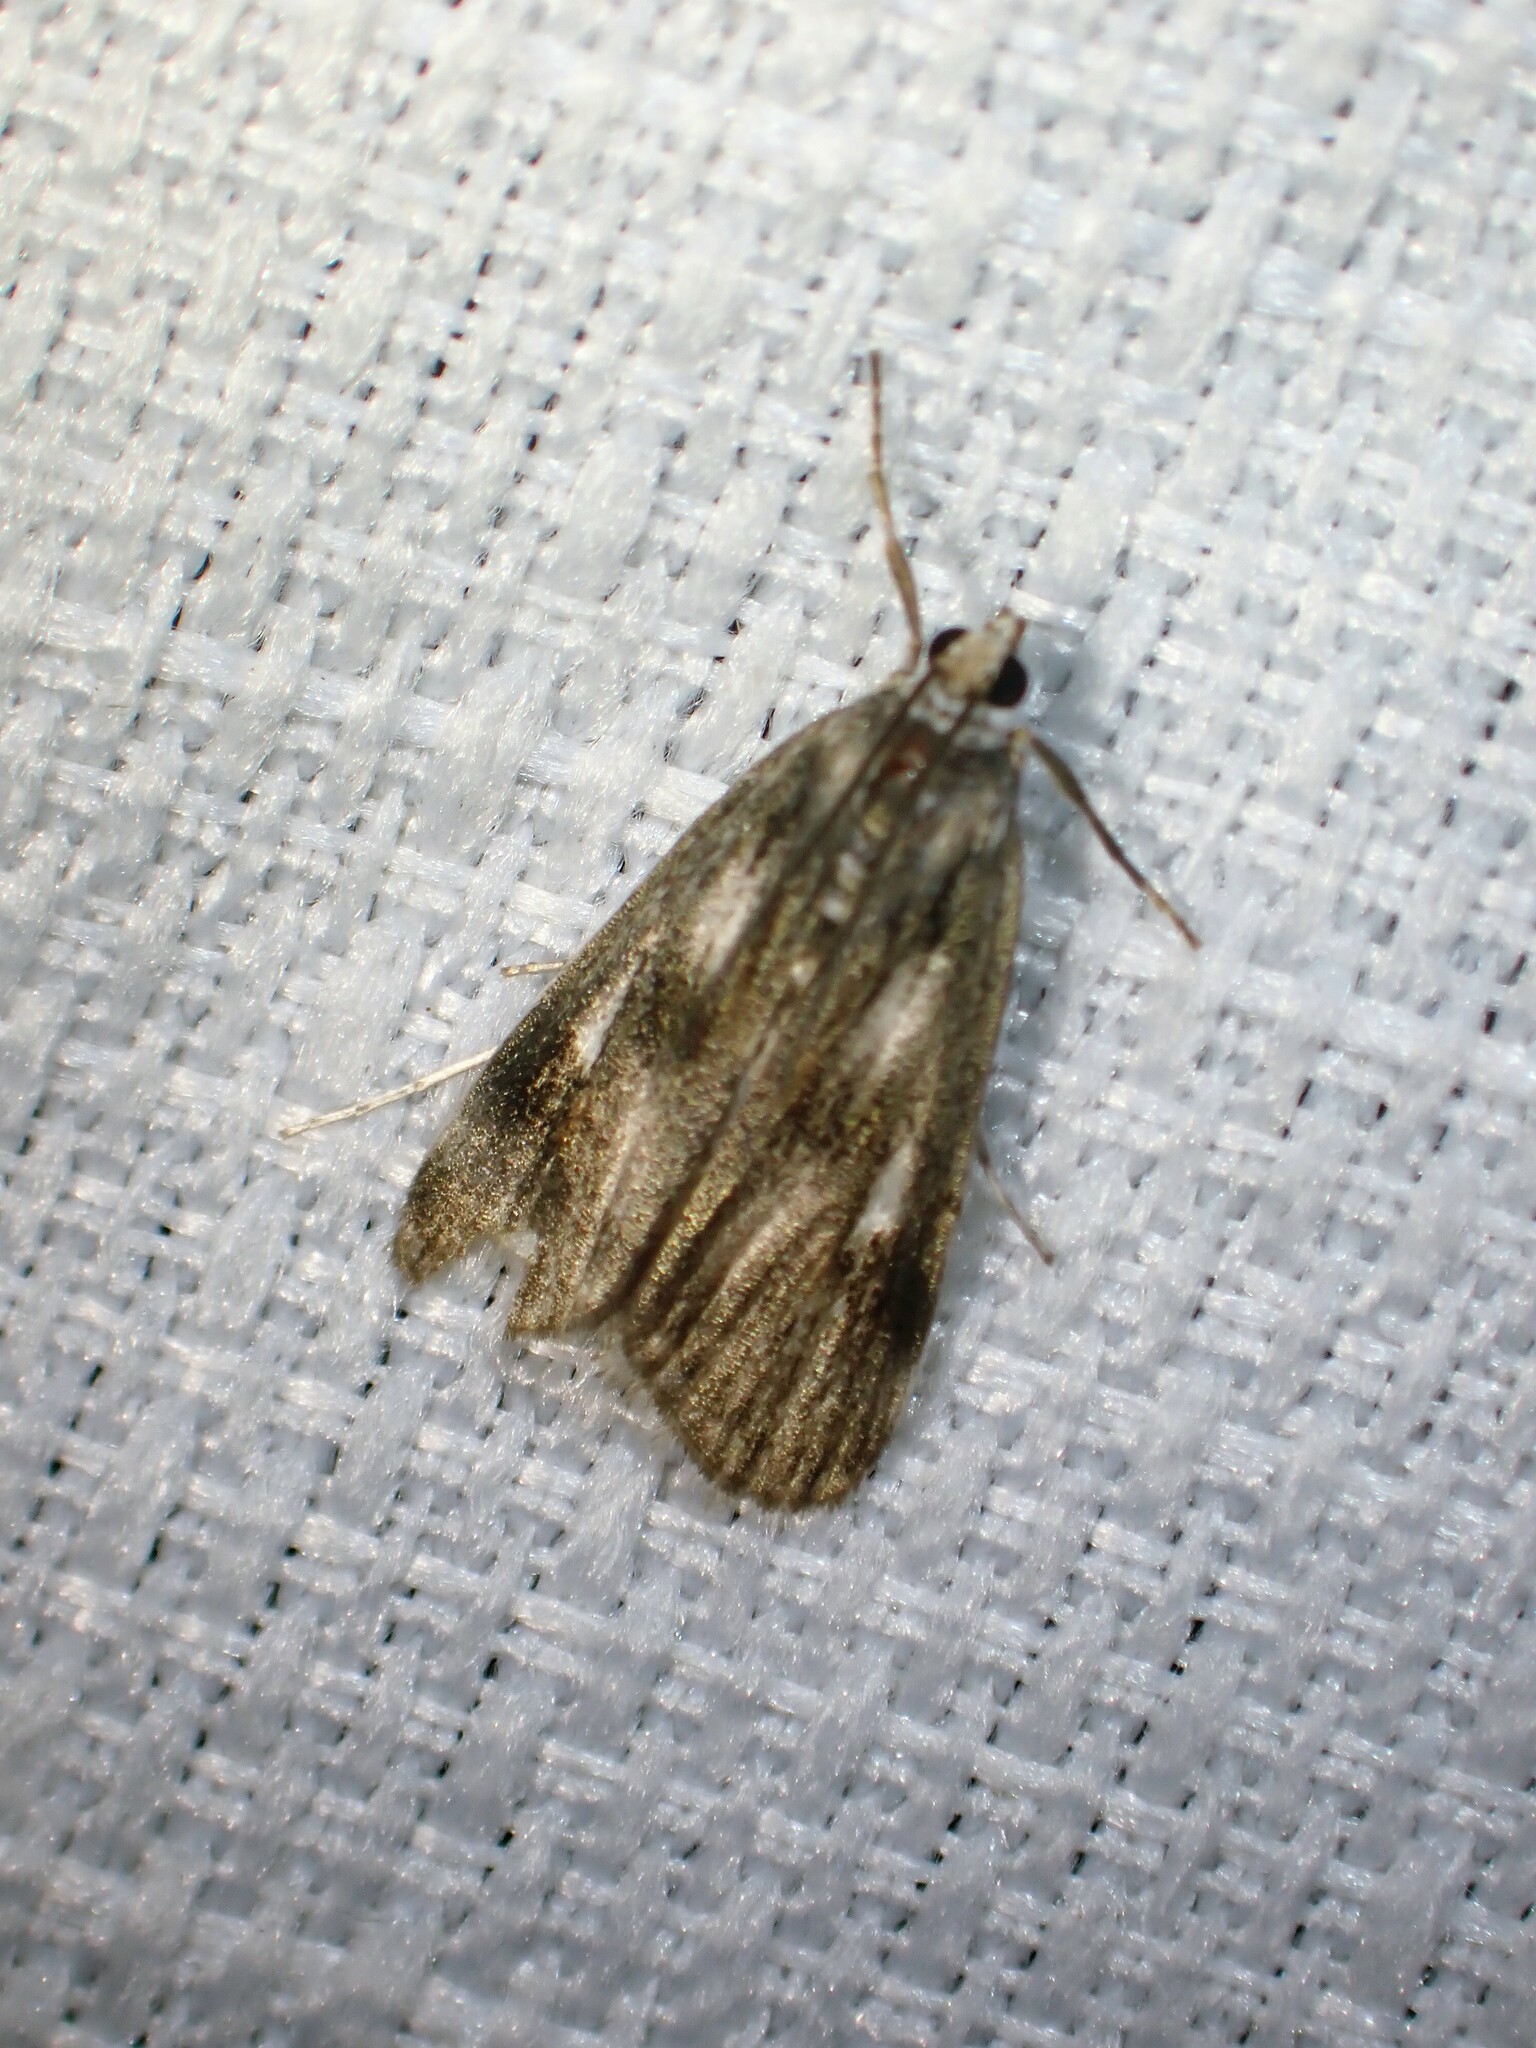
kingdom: Animalia
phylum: Arthropoda
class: Insecta
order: Lepidoptera
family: Crambidae
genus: Parapoynx
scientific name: Parapoynx maculalis
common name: Polymorphic pondweed moth
